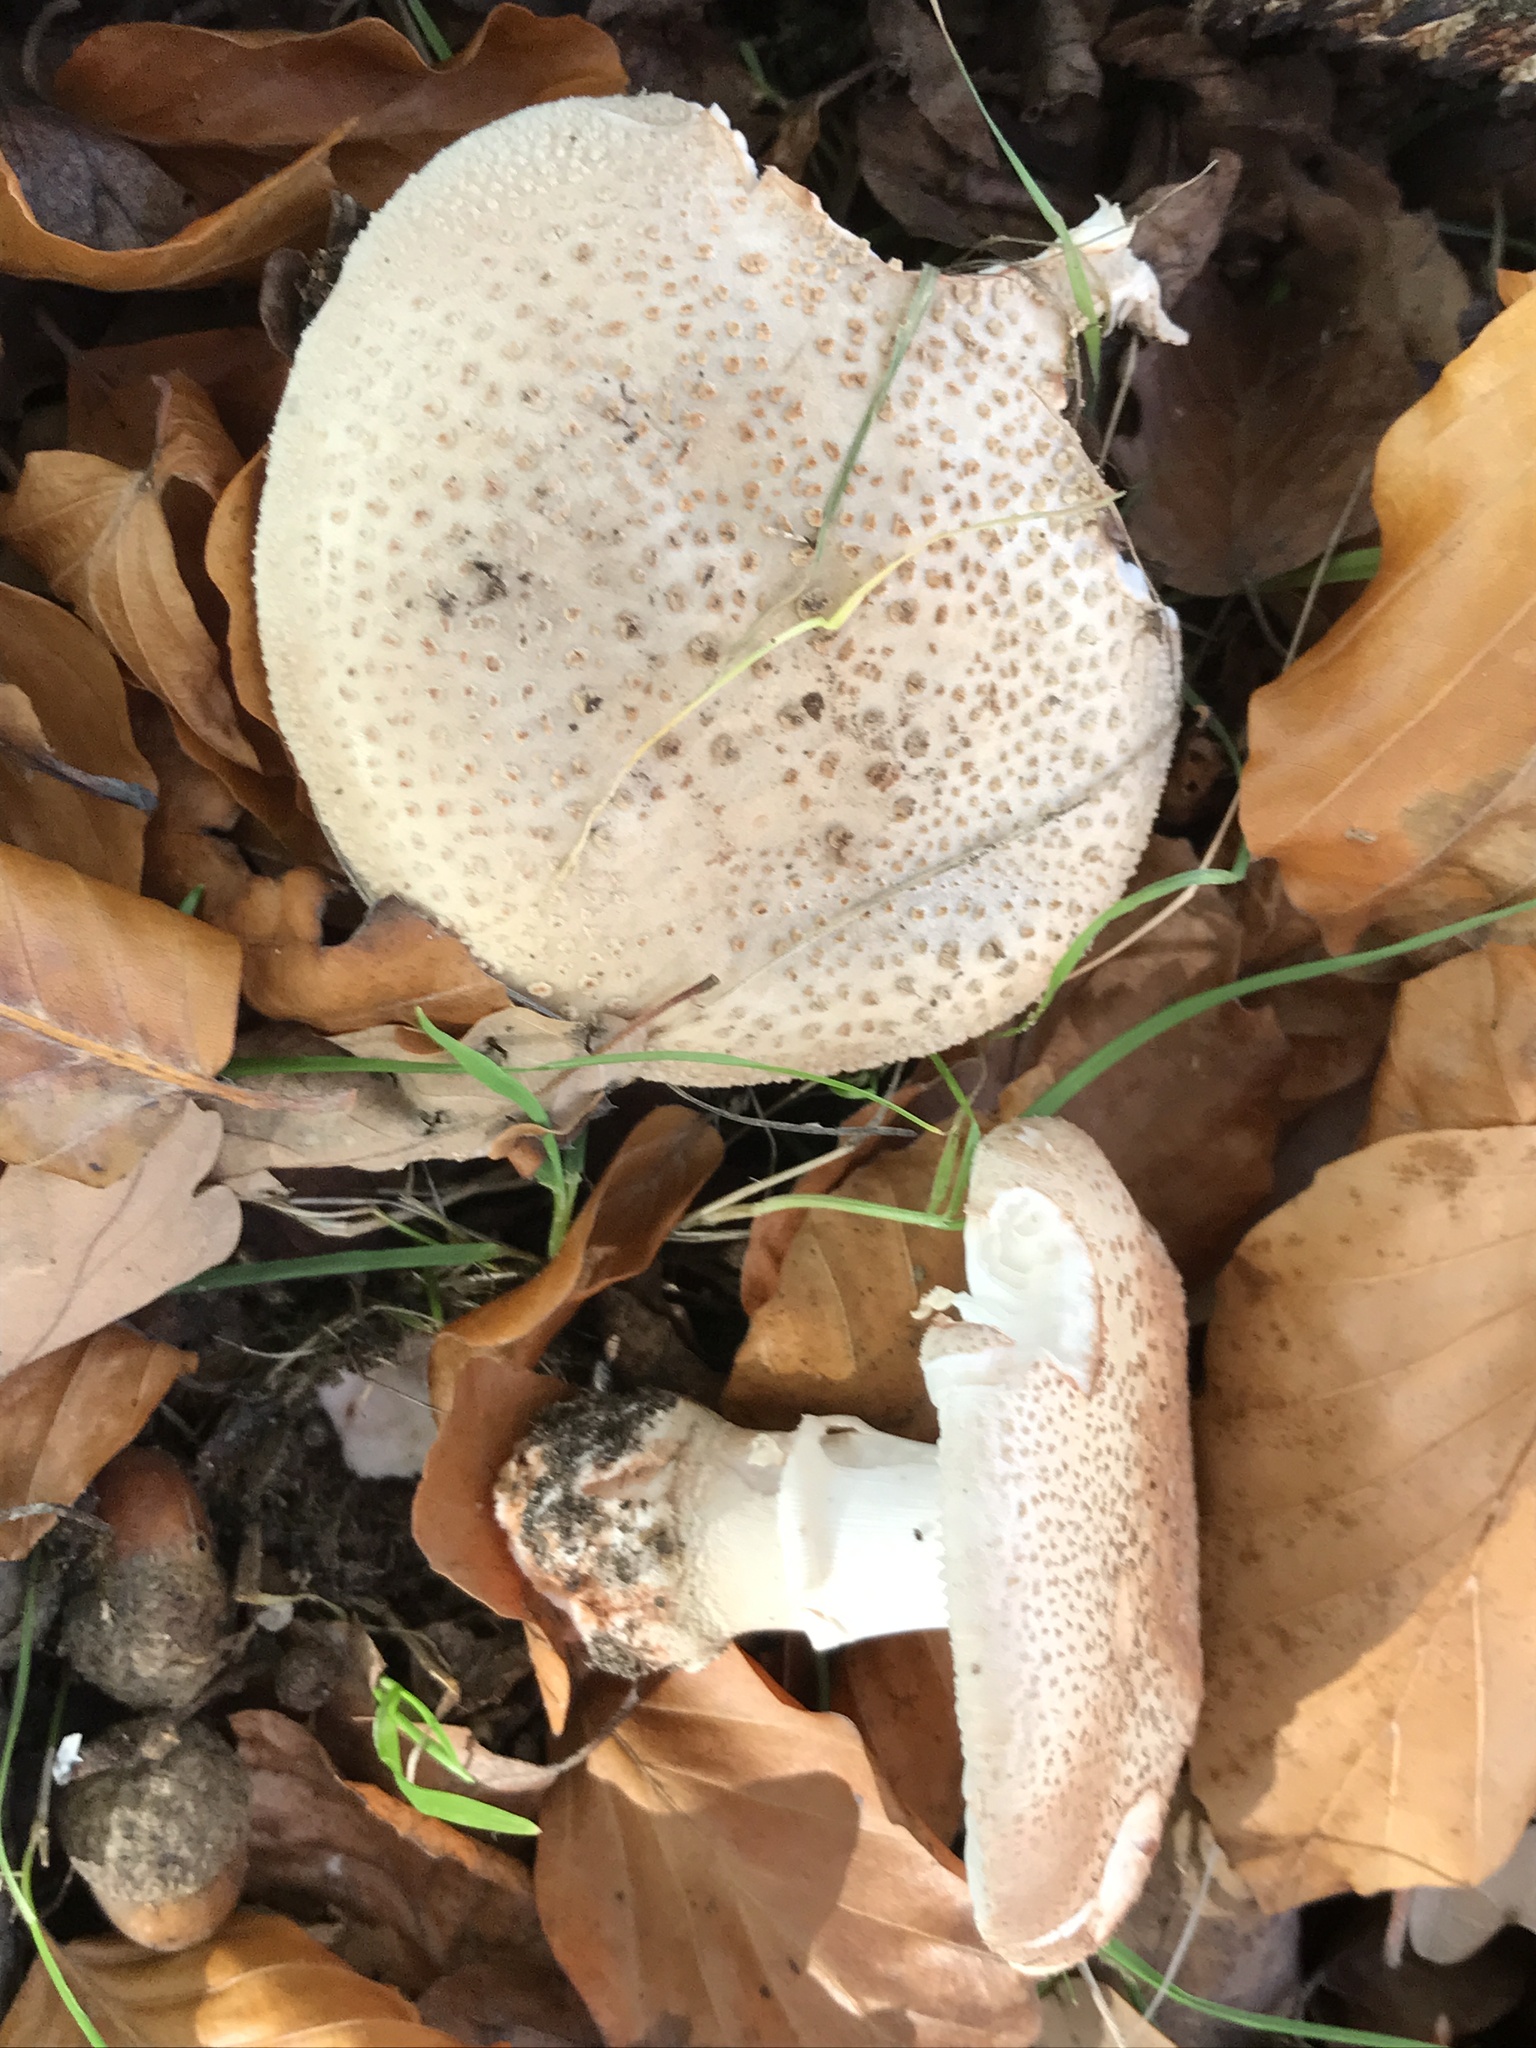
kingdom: Fungi
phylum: Basidiomycota
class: Agaricomycetes
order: Agaricales
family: Amanitaceae
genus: Amanita
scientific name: Amanita rubescens
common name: Blusher
